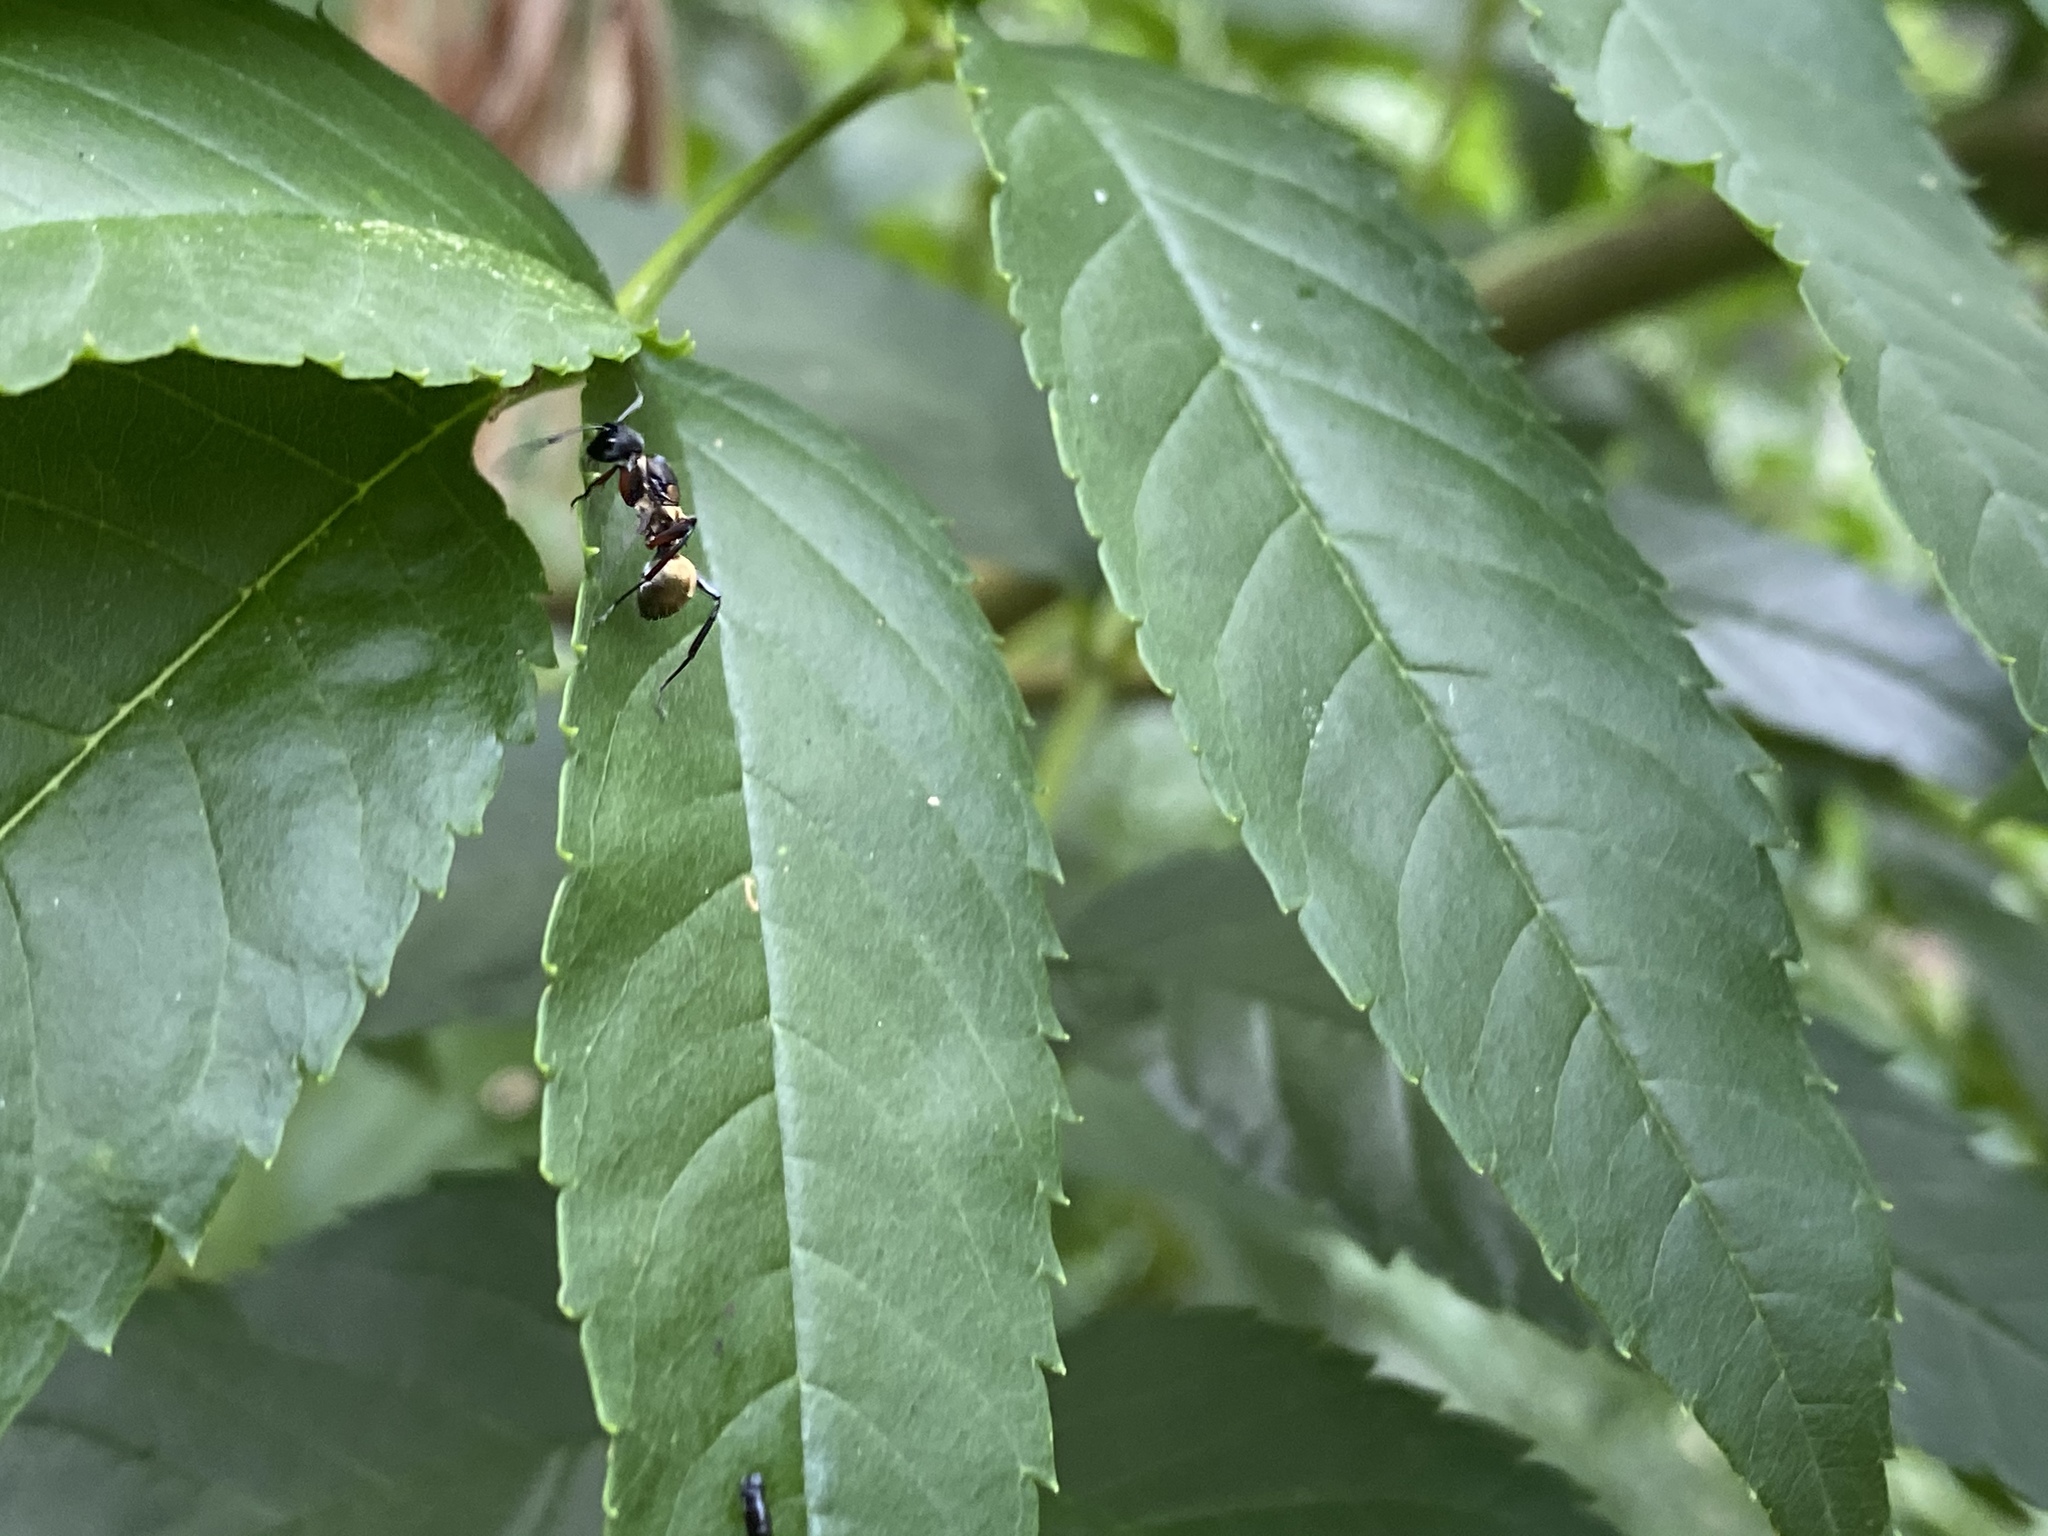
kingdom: Animalia
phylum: Arthropoda
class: Insecta
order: Hymenoptera
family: Formicidae
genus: Polyrhachis
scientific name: Polyrhachis rufifemur
